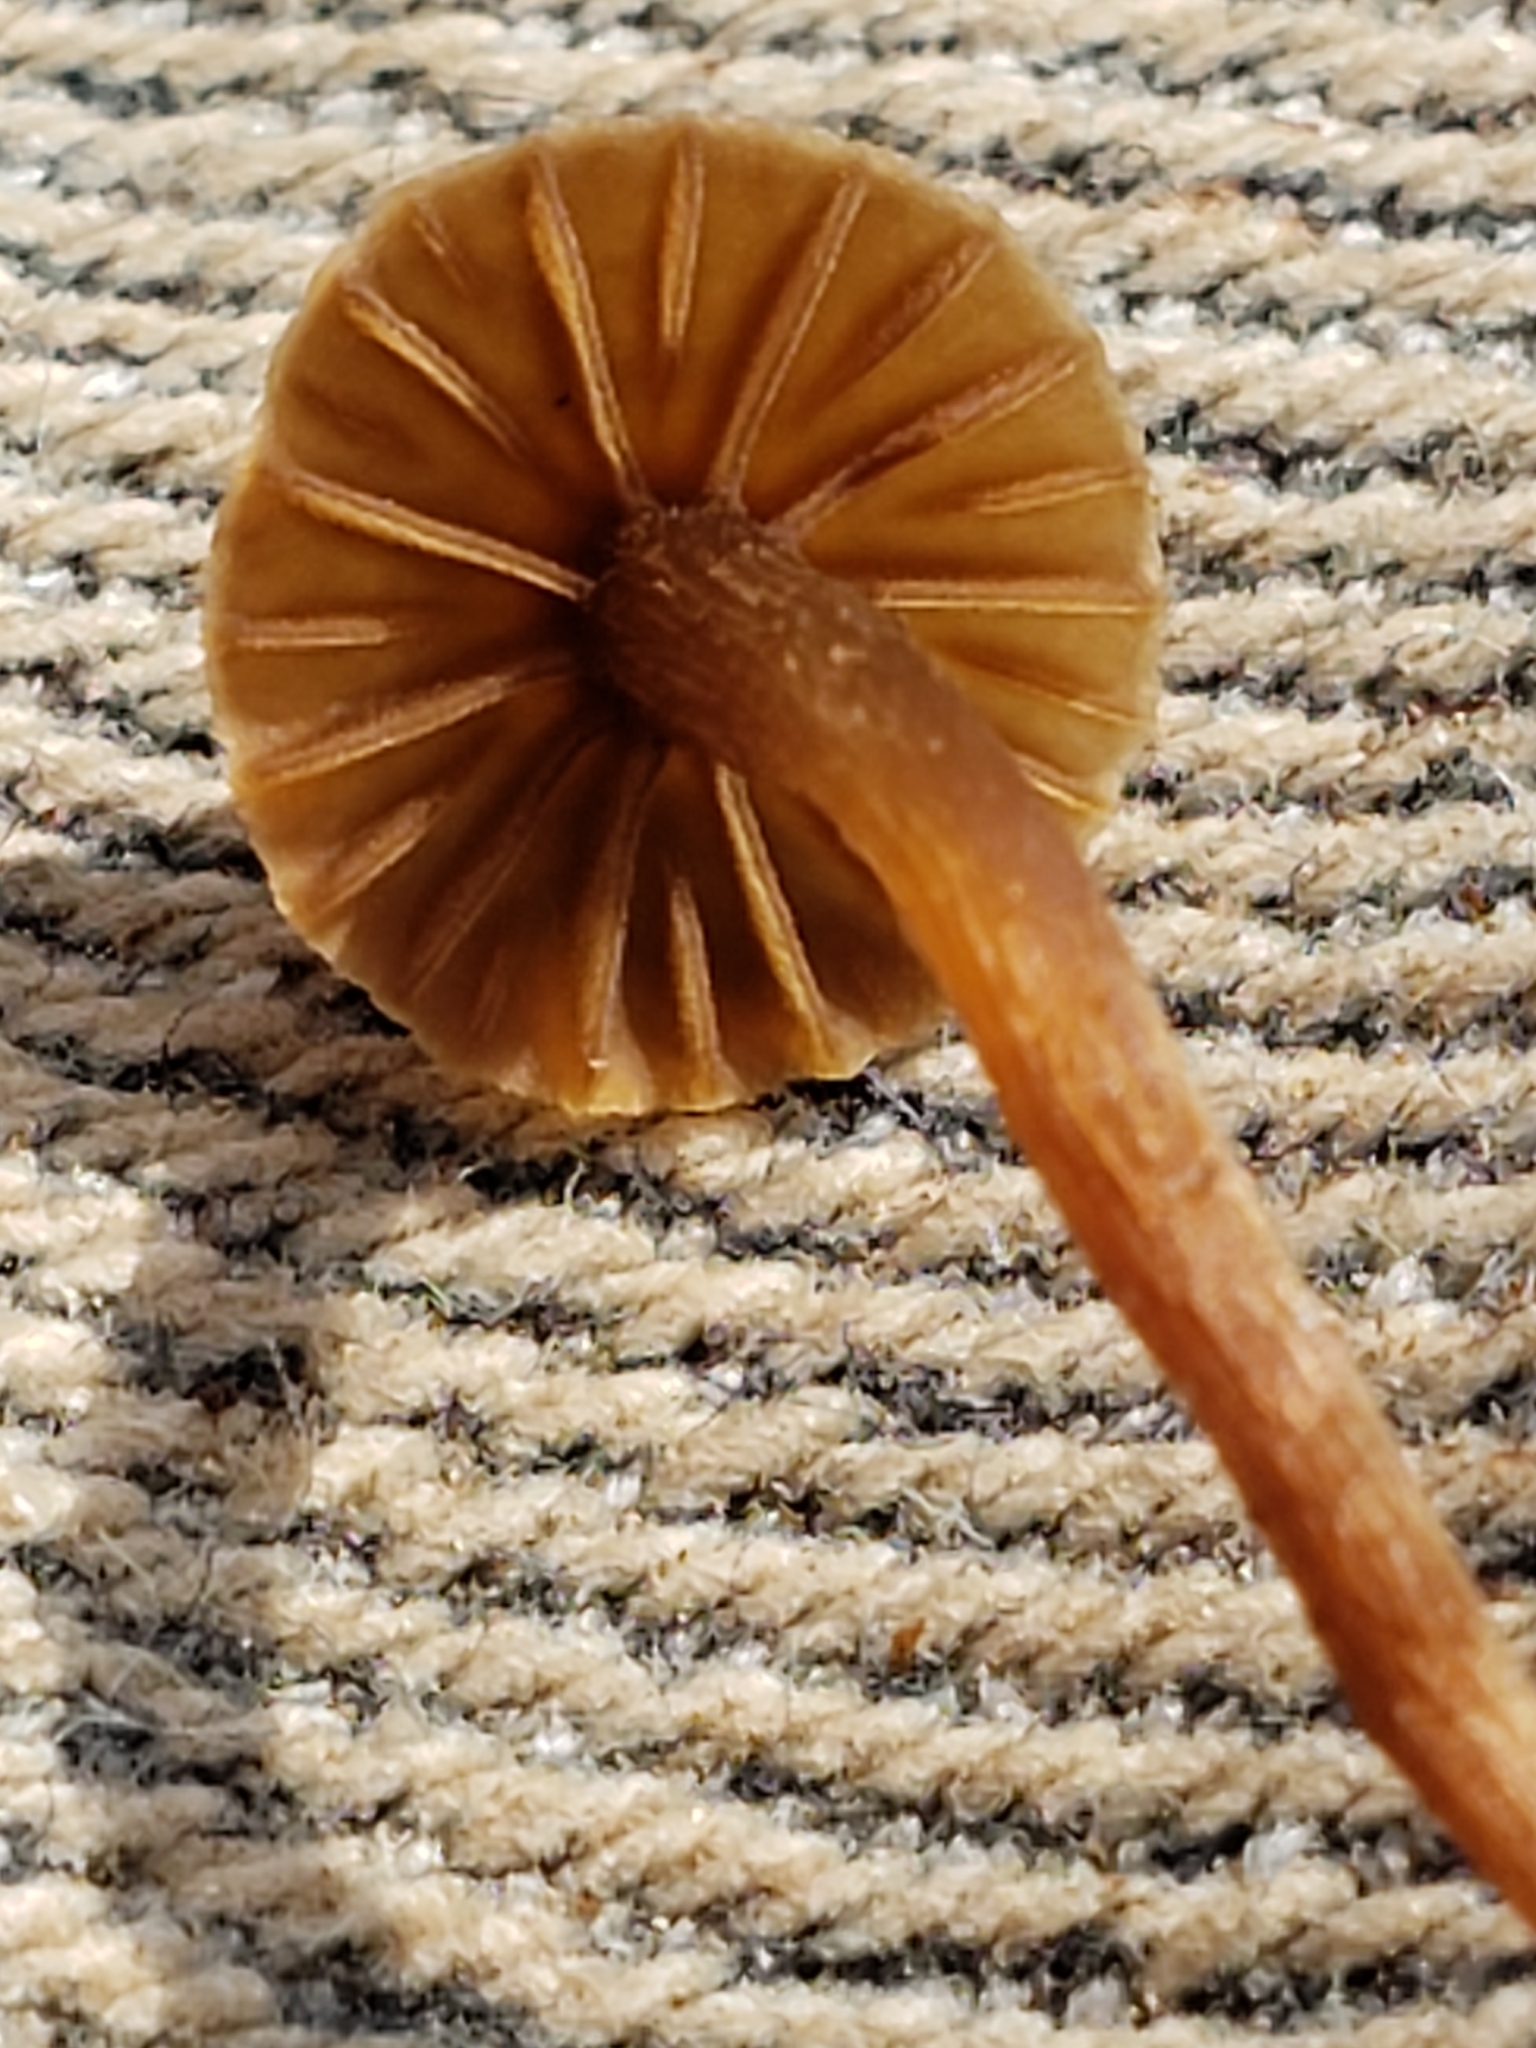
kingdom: Fungi
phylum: Basidiomycota
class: Agaricomycetes
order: Agaricales
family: Bolbitiaceae
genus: Conocybe
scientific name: Conocybe rugosa
